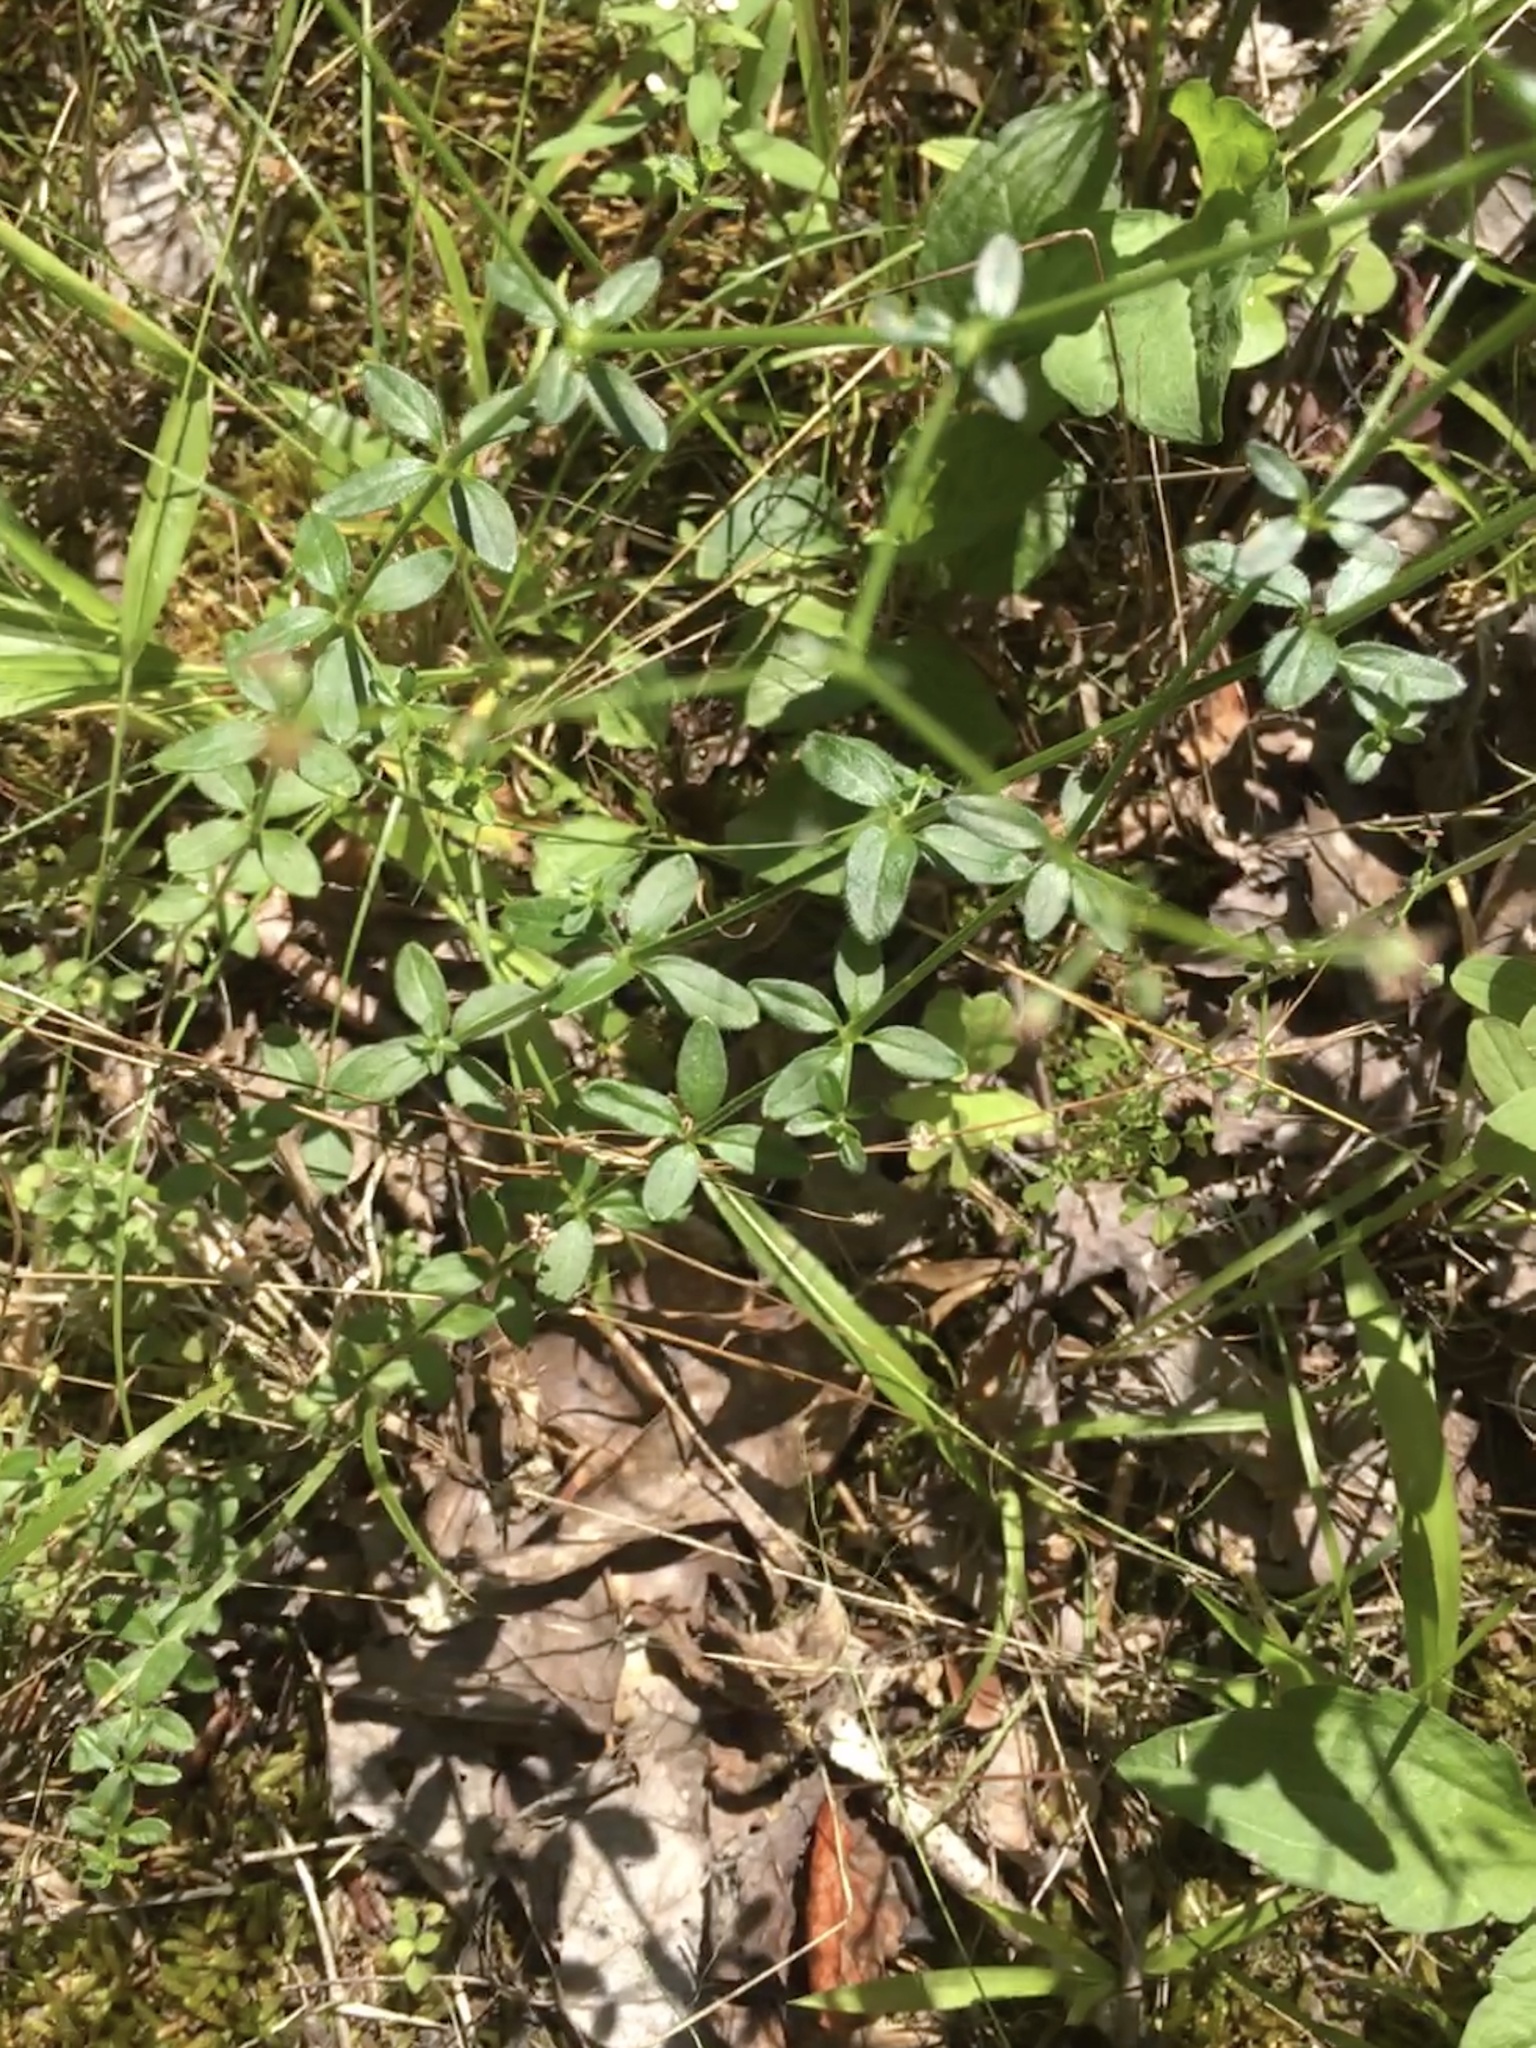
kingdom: Plantae
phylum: Tracheophyta
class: Magnoliopsida
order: Gentianales
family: Rubiaceae
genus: Galium
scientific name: Galium pilosum
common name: Hairy bedstraw
